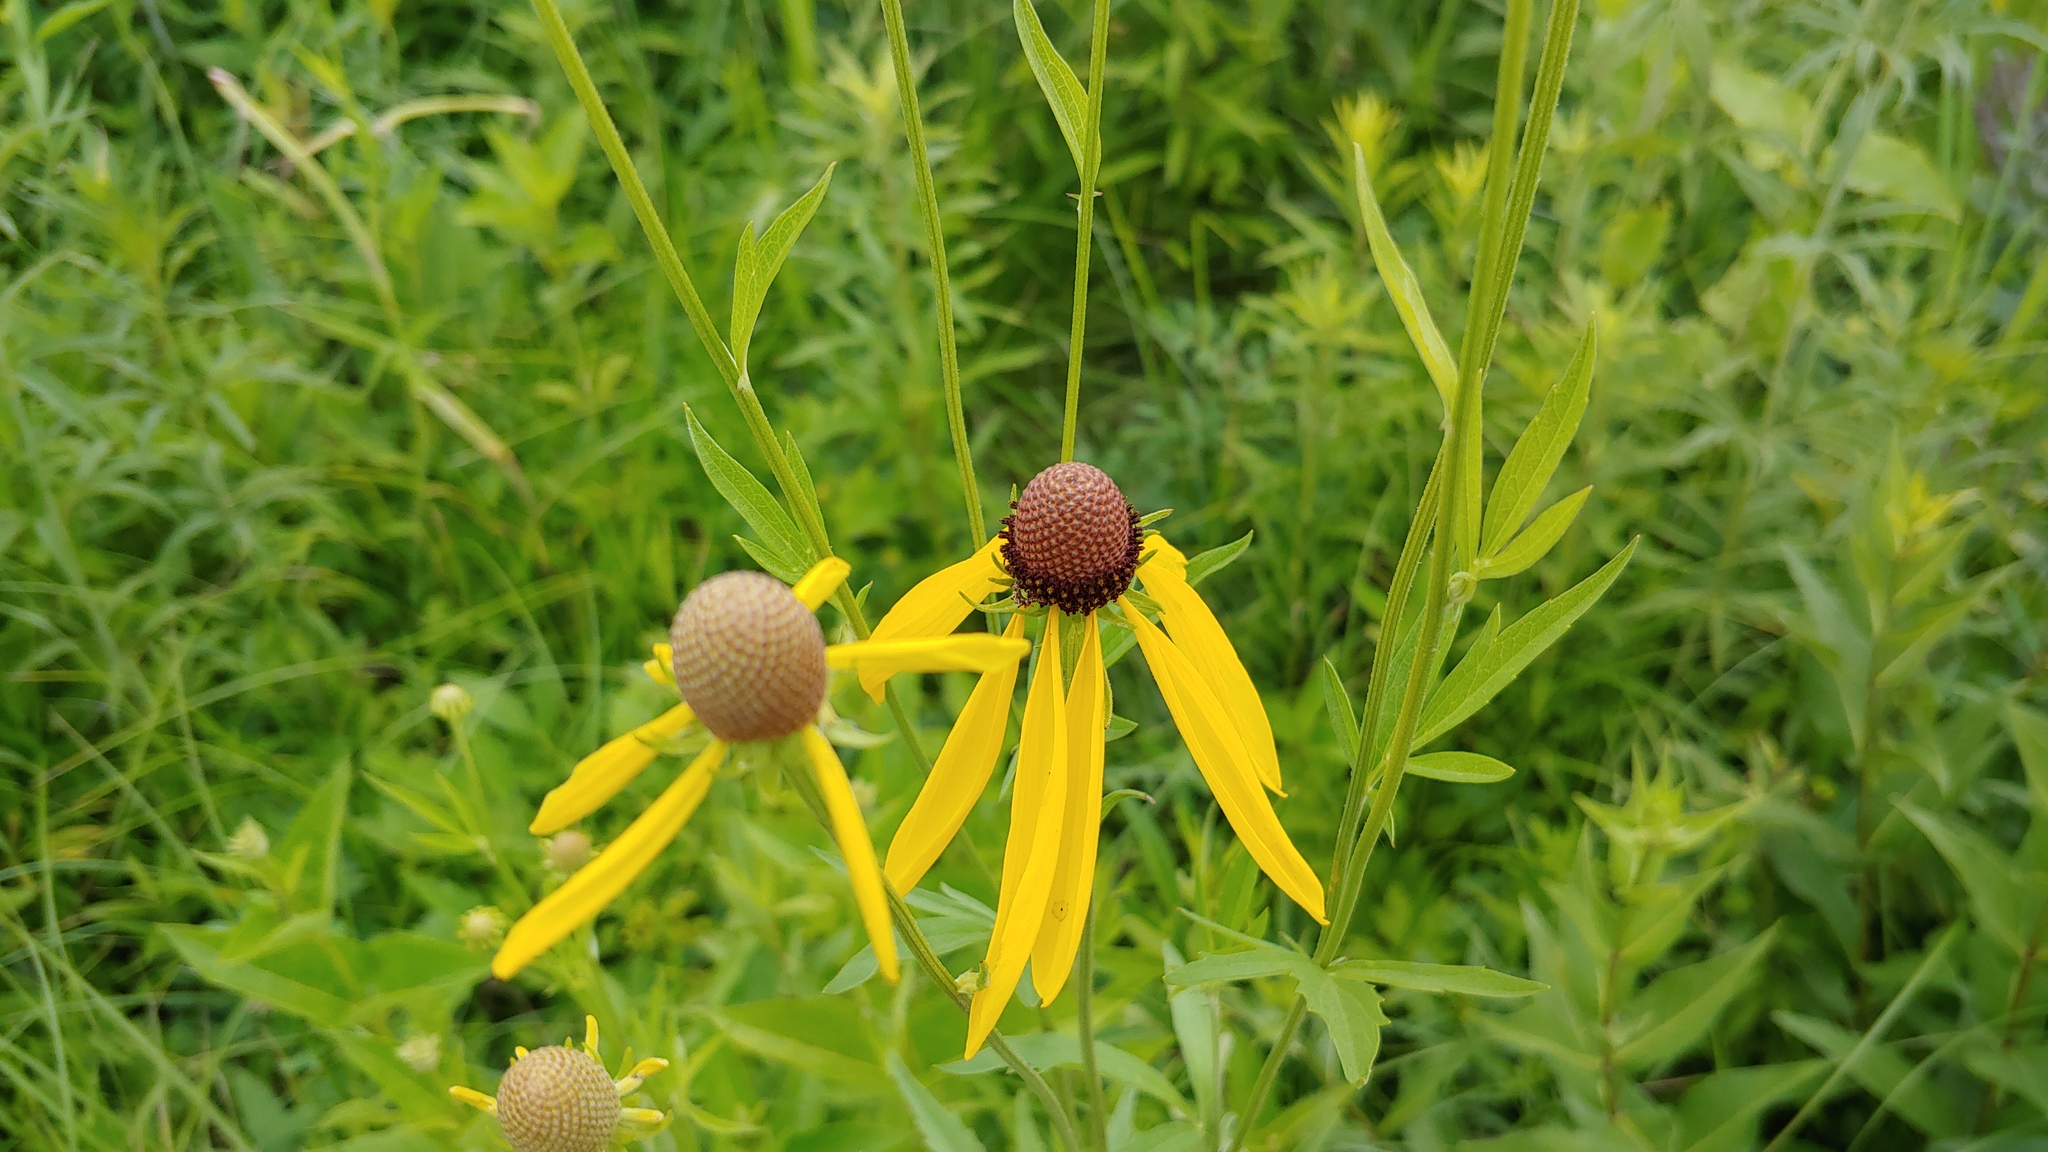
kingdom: Plantae
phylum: Tracheophyta
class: Magnoliopsida
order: Asterales
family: Asteraceae
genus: Ratibida
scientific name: Ratibida pinnata
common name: Drooping prairie-coneflower
